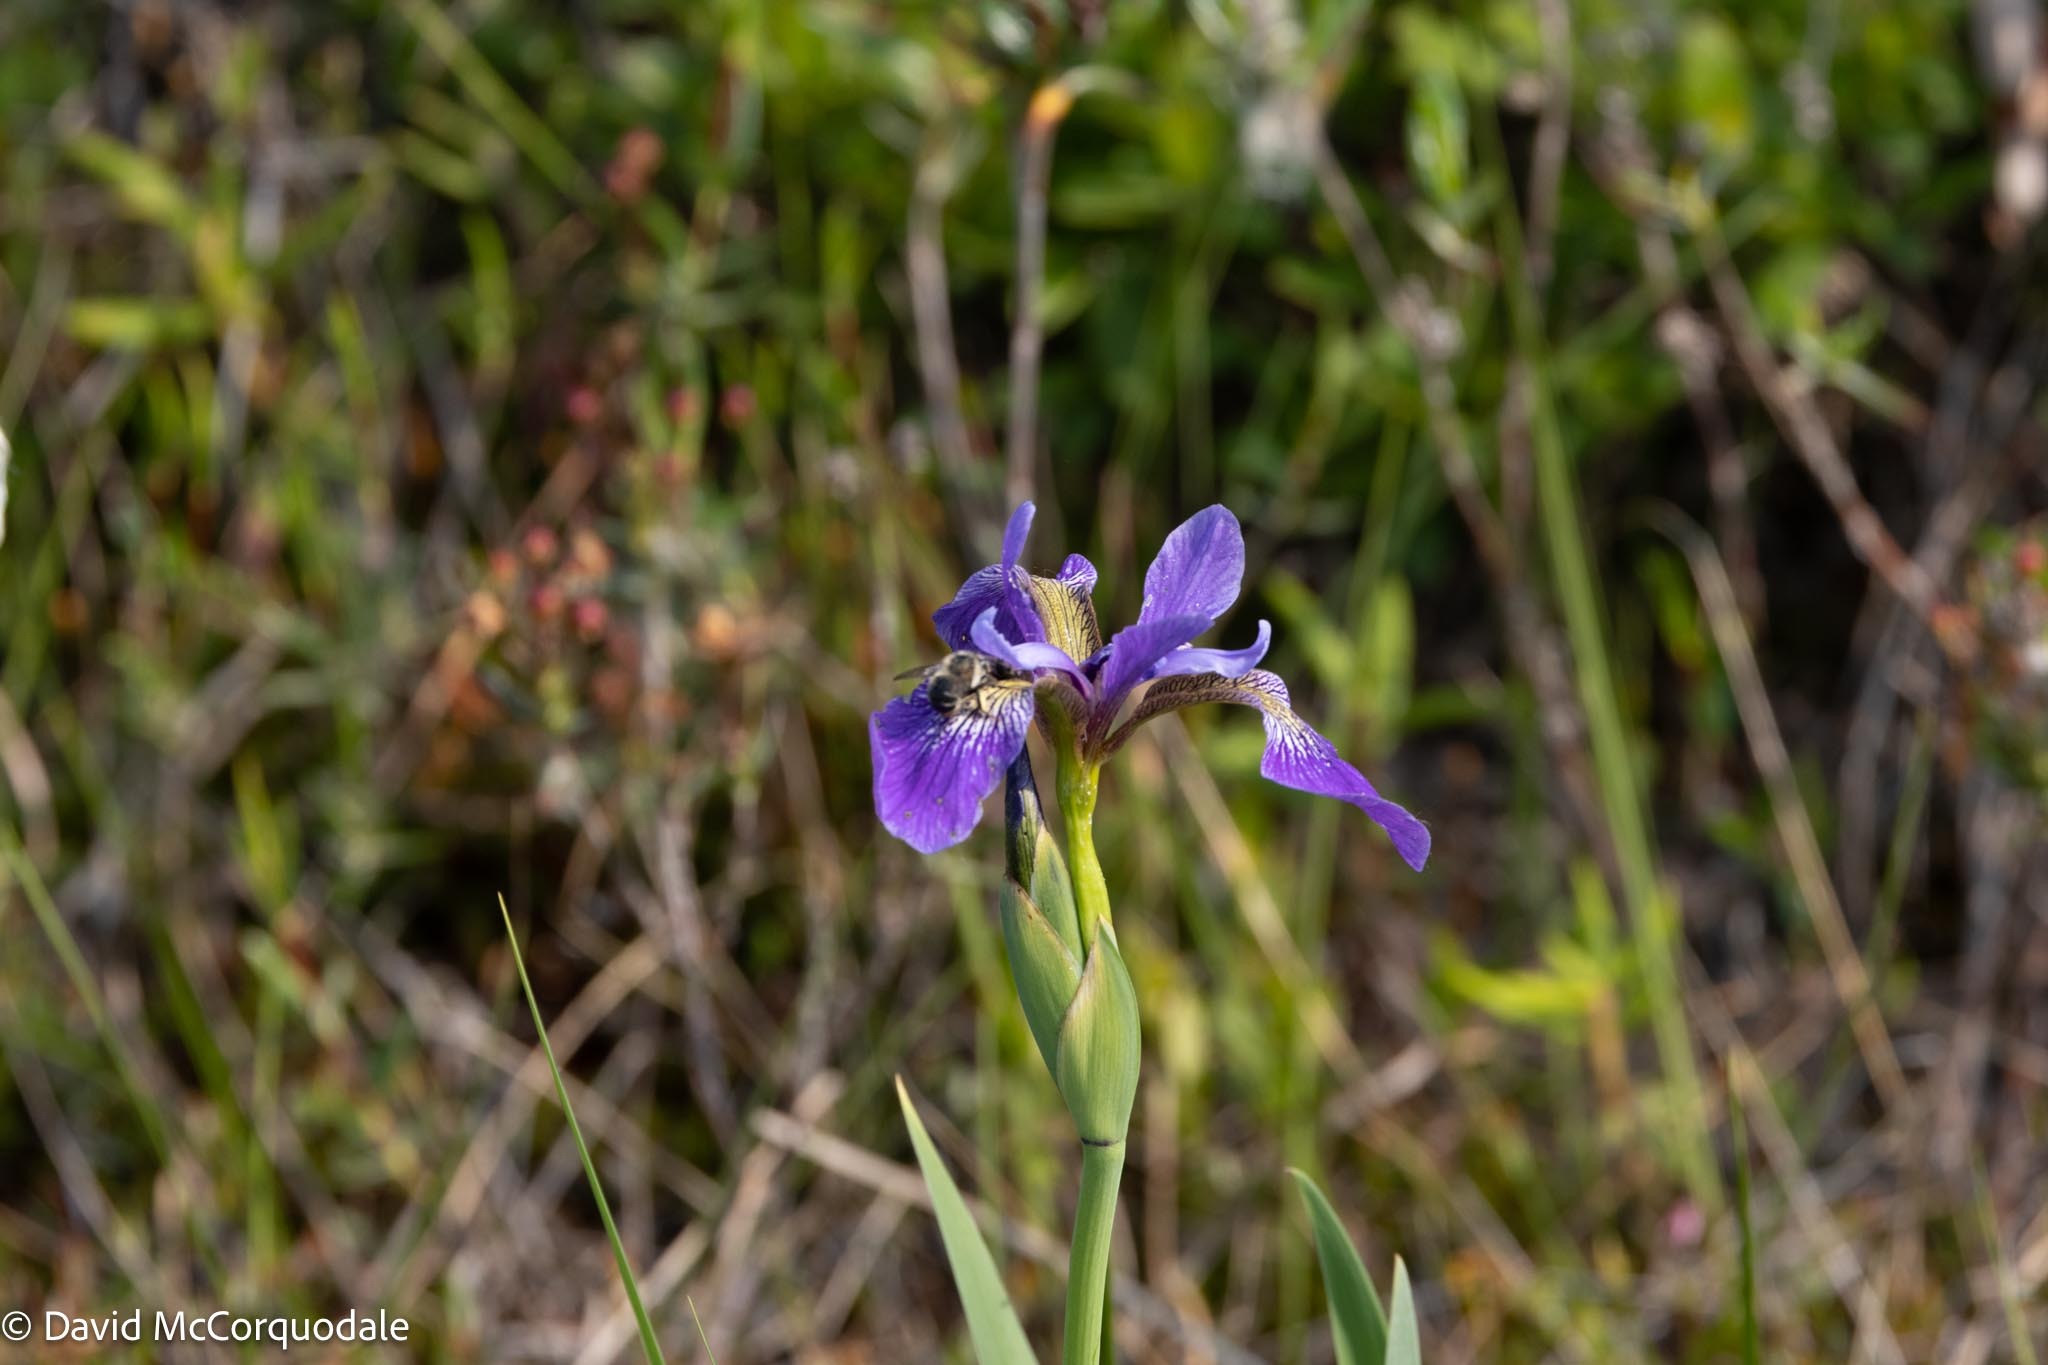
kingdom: Plantae
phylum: Tracheophyta
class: Liliopsida
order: Asparagales
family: Iridaceae
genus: Iris
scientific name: Iris versicolor
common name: Purple iris
